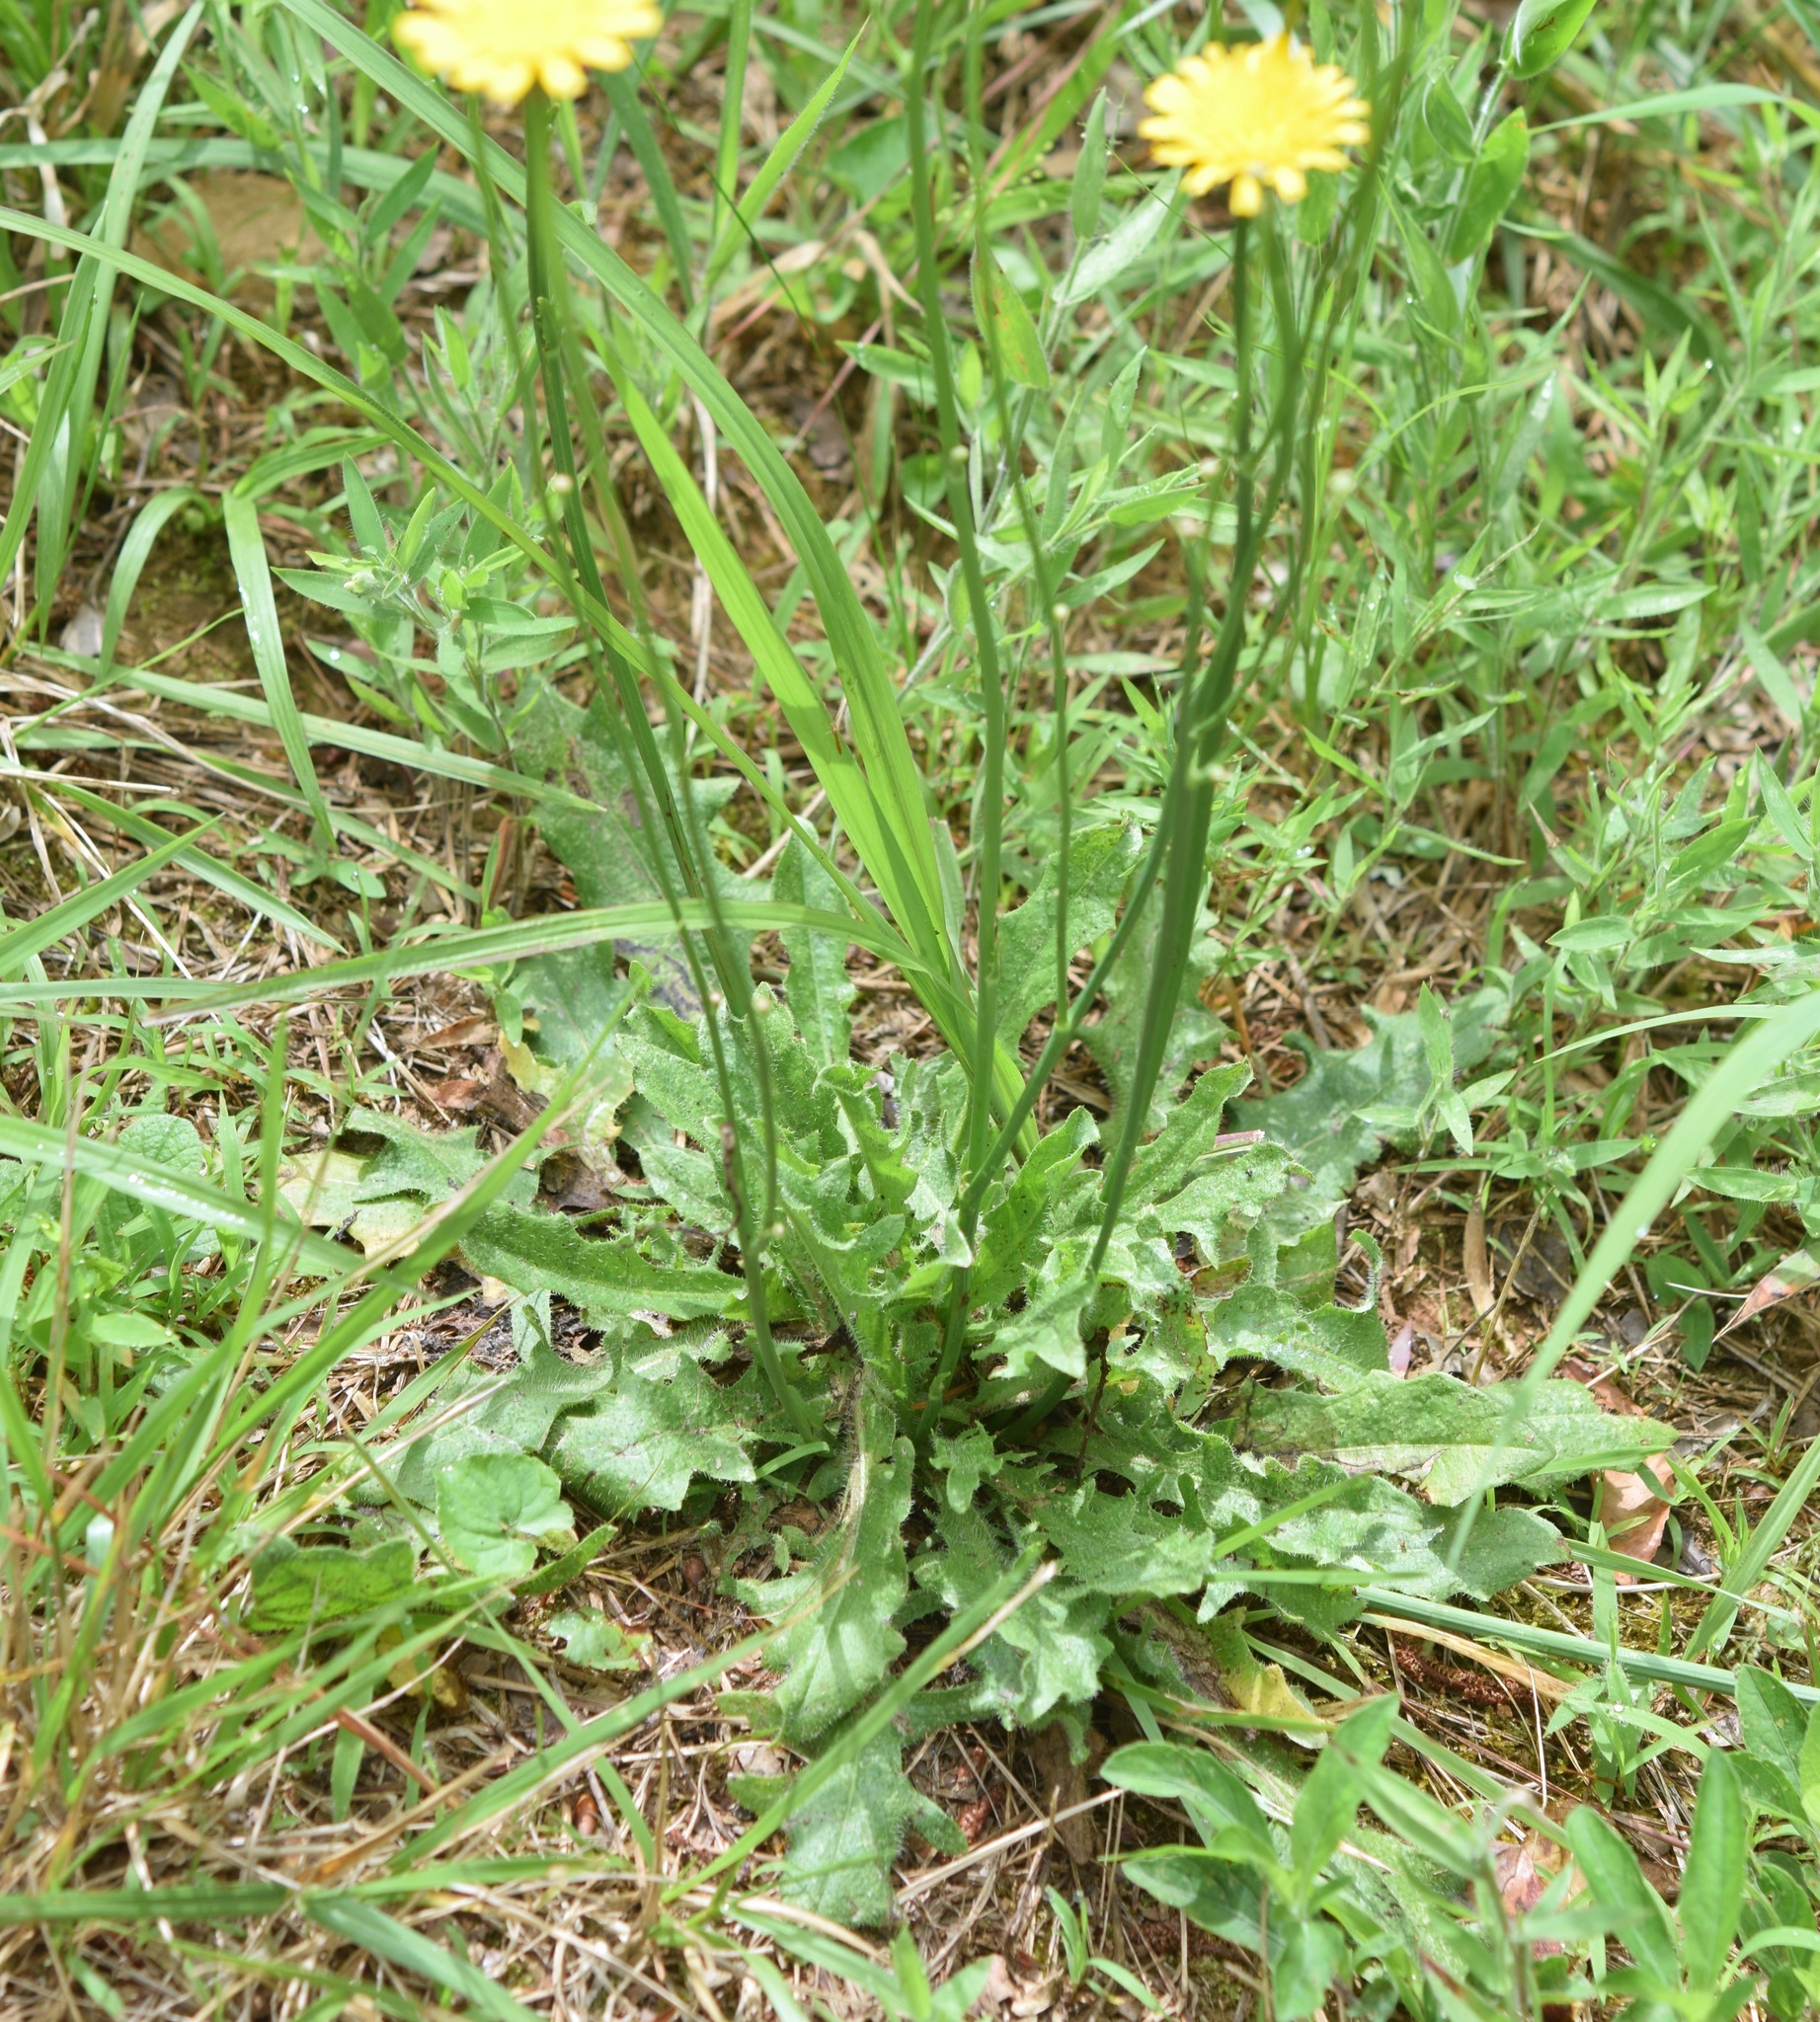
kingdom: Plantae
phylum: Tracheophyta
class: Magnoliopsida
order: Asterales
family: Asteraceae
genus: Hypochaeris
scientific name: Hypochaeris radicata
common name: Flatweed
